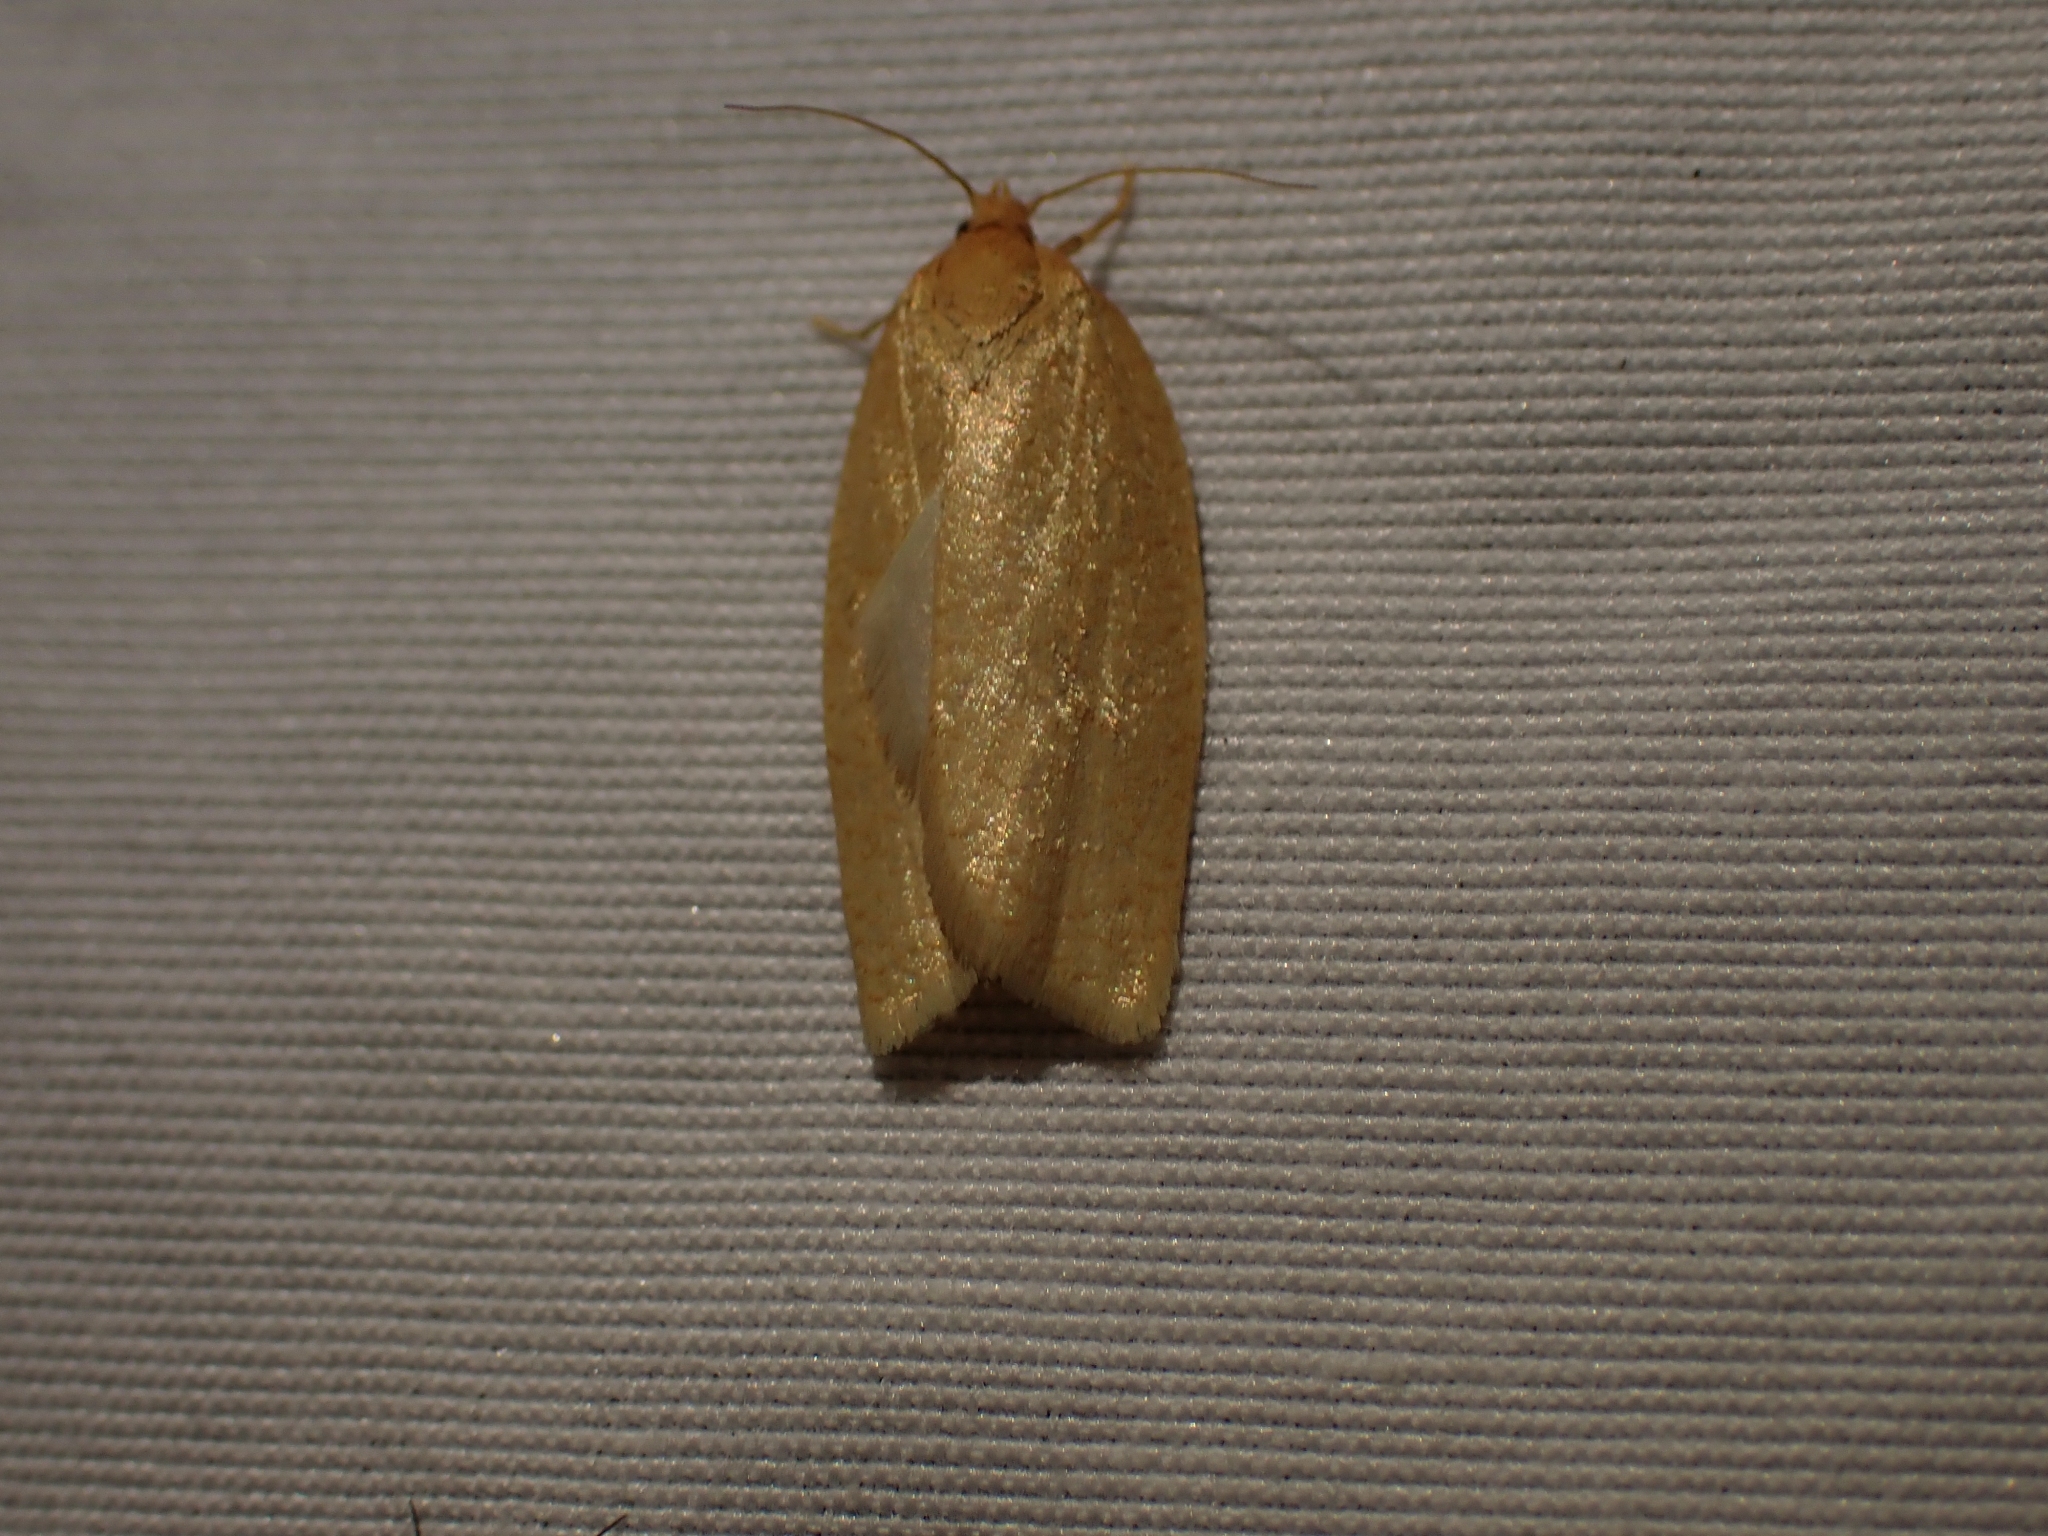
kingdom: Animalia
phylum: Arthropoda
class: Insecta
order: Lepidoptera
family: Tortricidae
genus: Xenotemna
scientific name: Xenotemna pallorana
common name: Pallid leafroller moth
